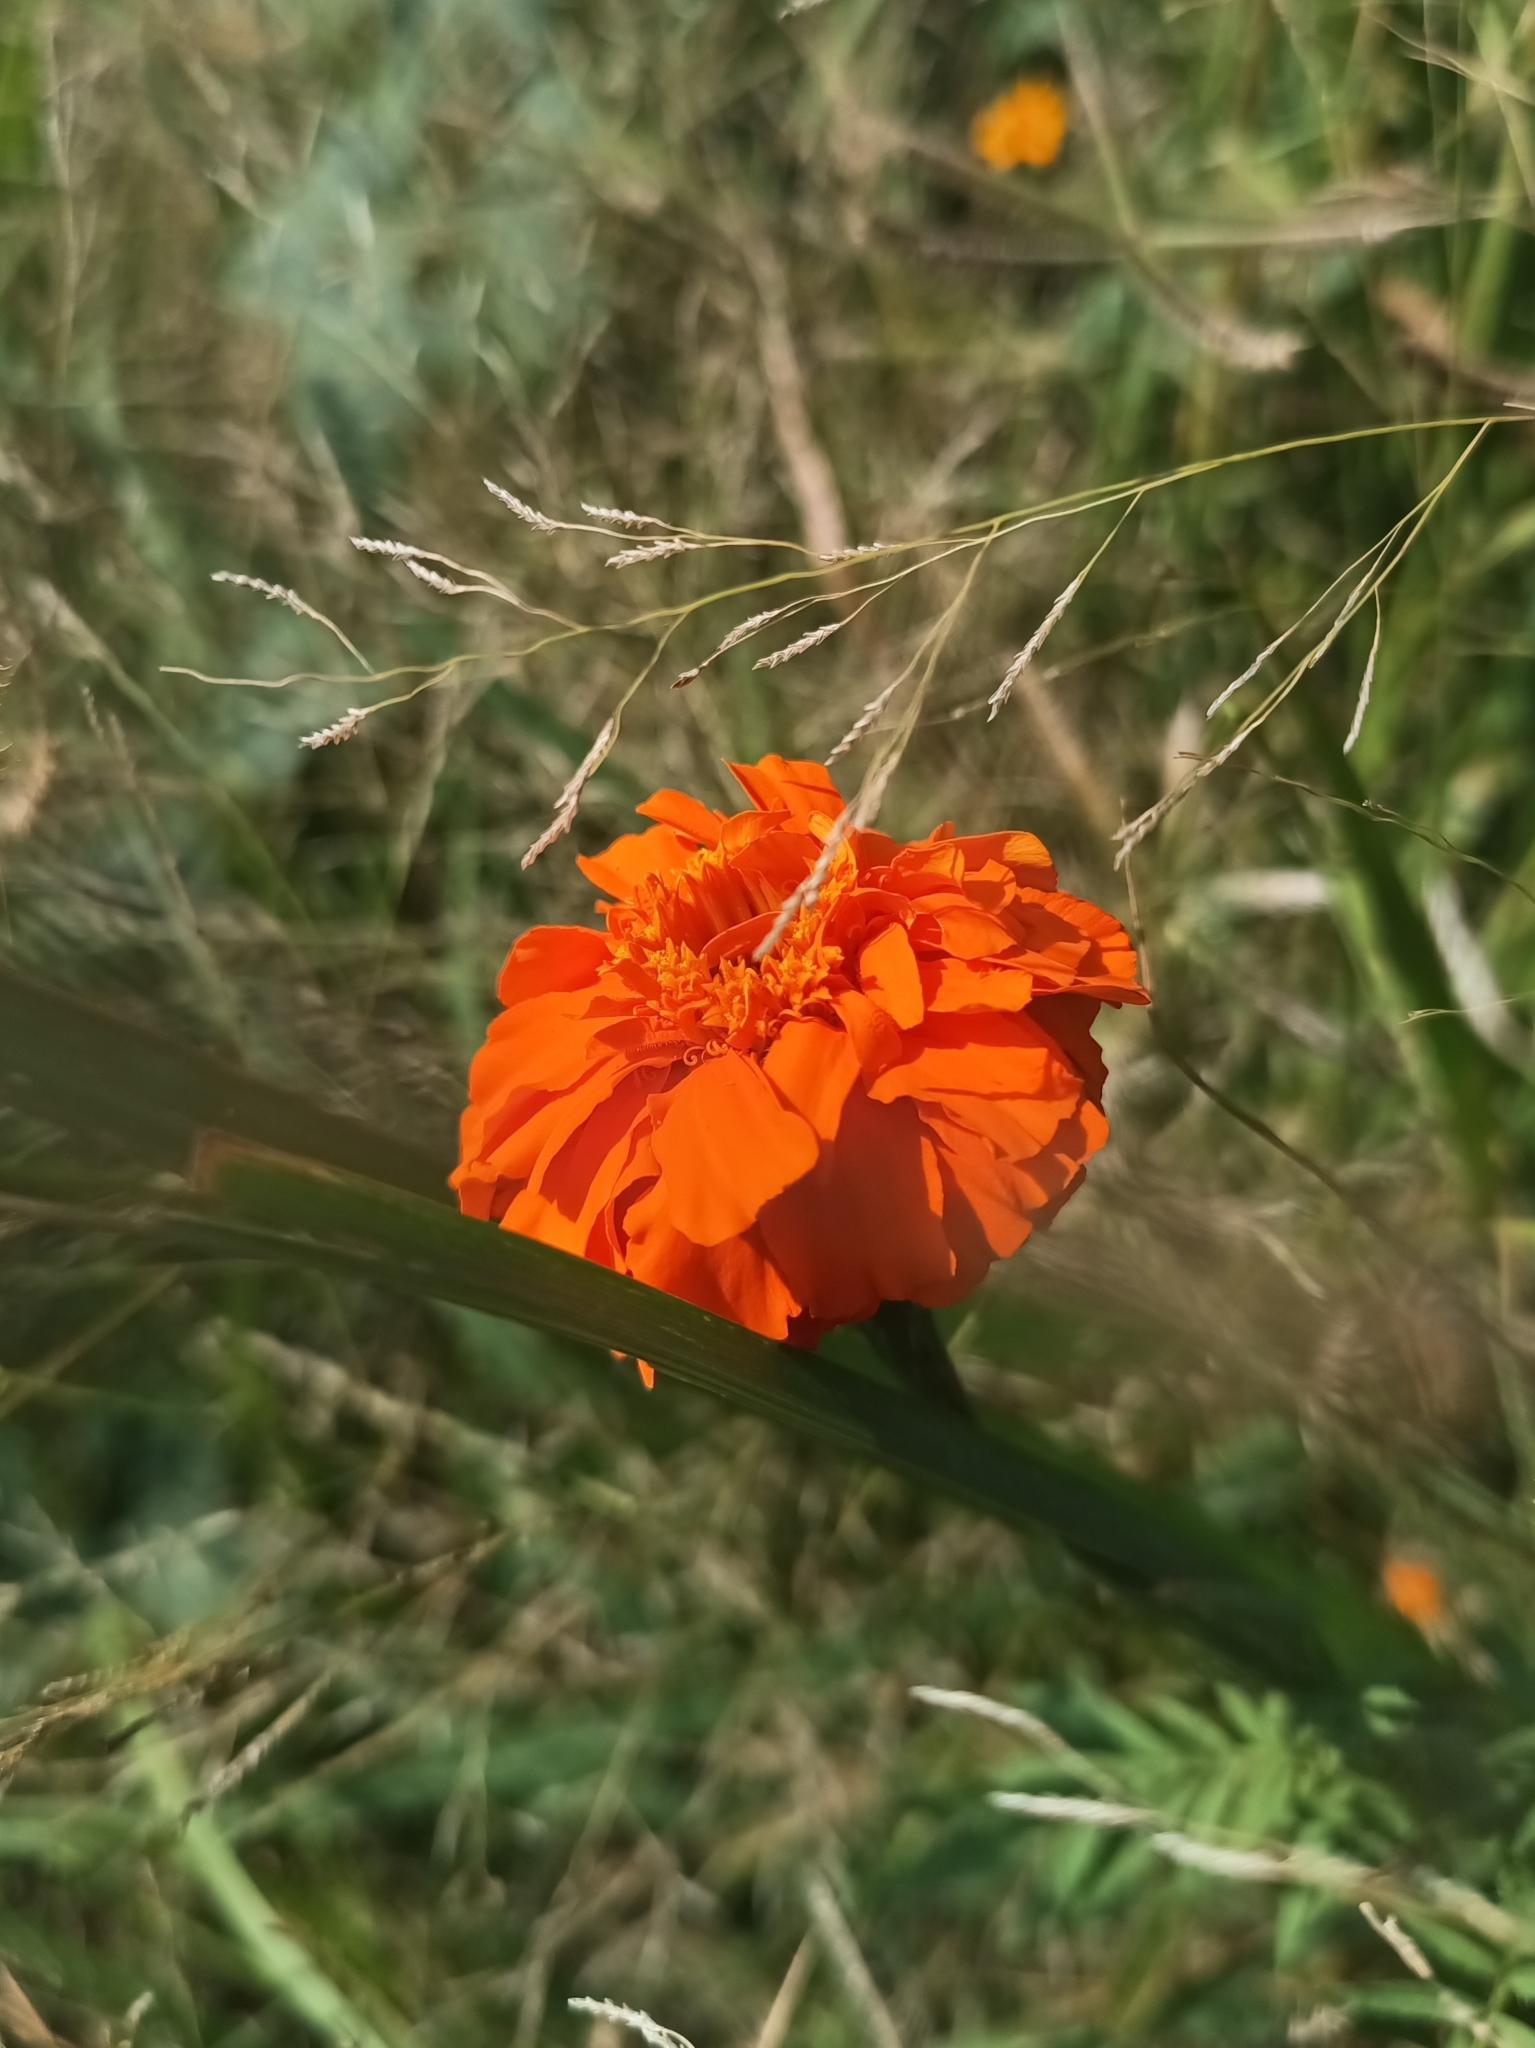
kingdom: Plantae
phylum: Tracheophyta
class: Magnoliopsida
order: Asterales
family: Asteraceae
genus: Tagetes
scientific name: Tagetes erecta
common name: African marigold
